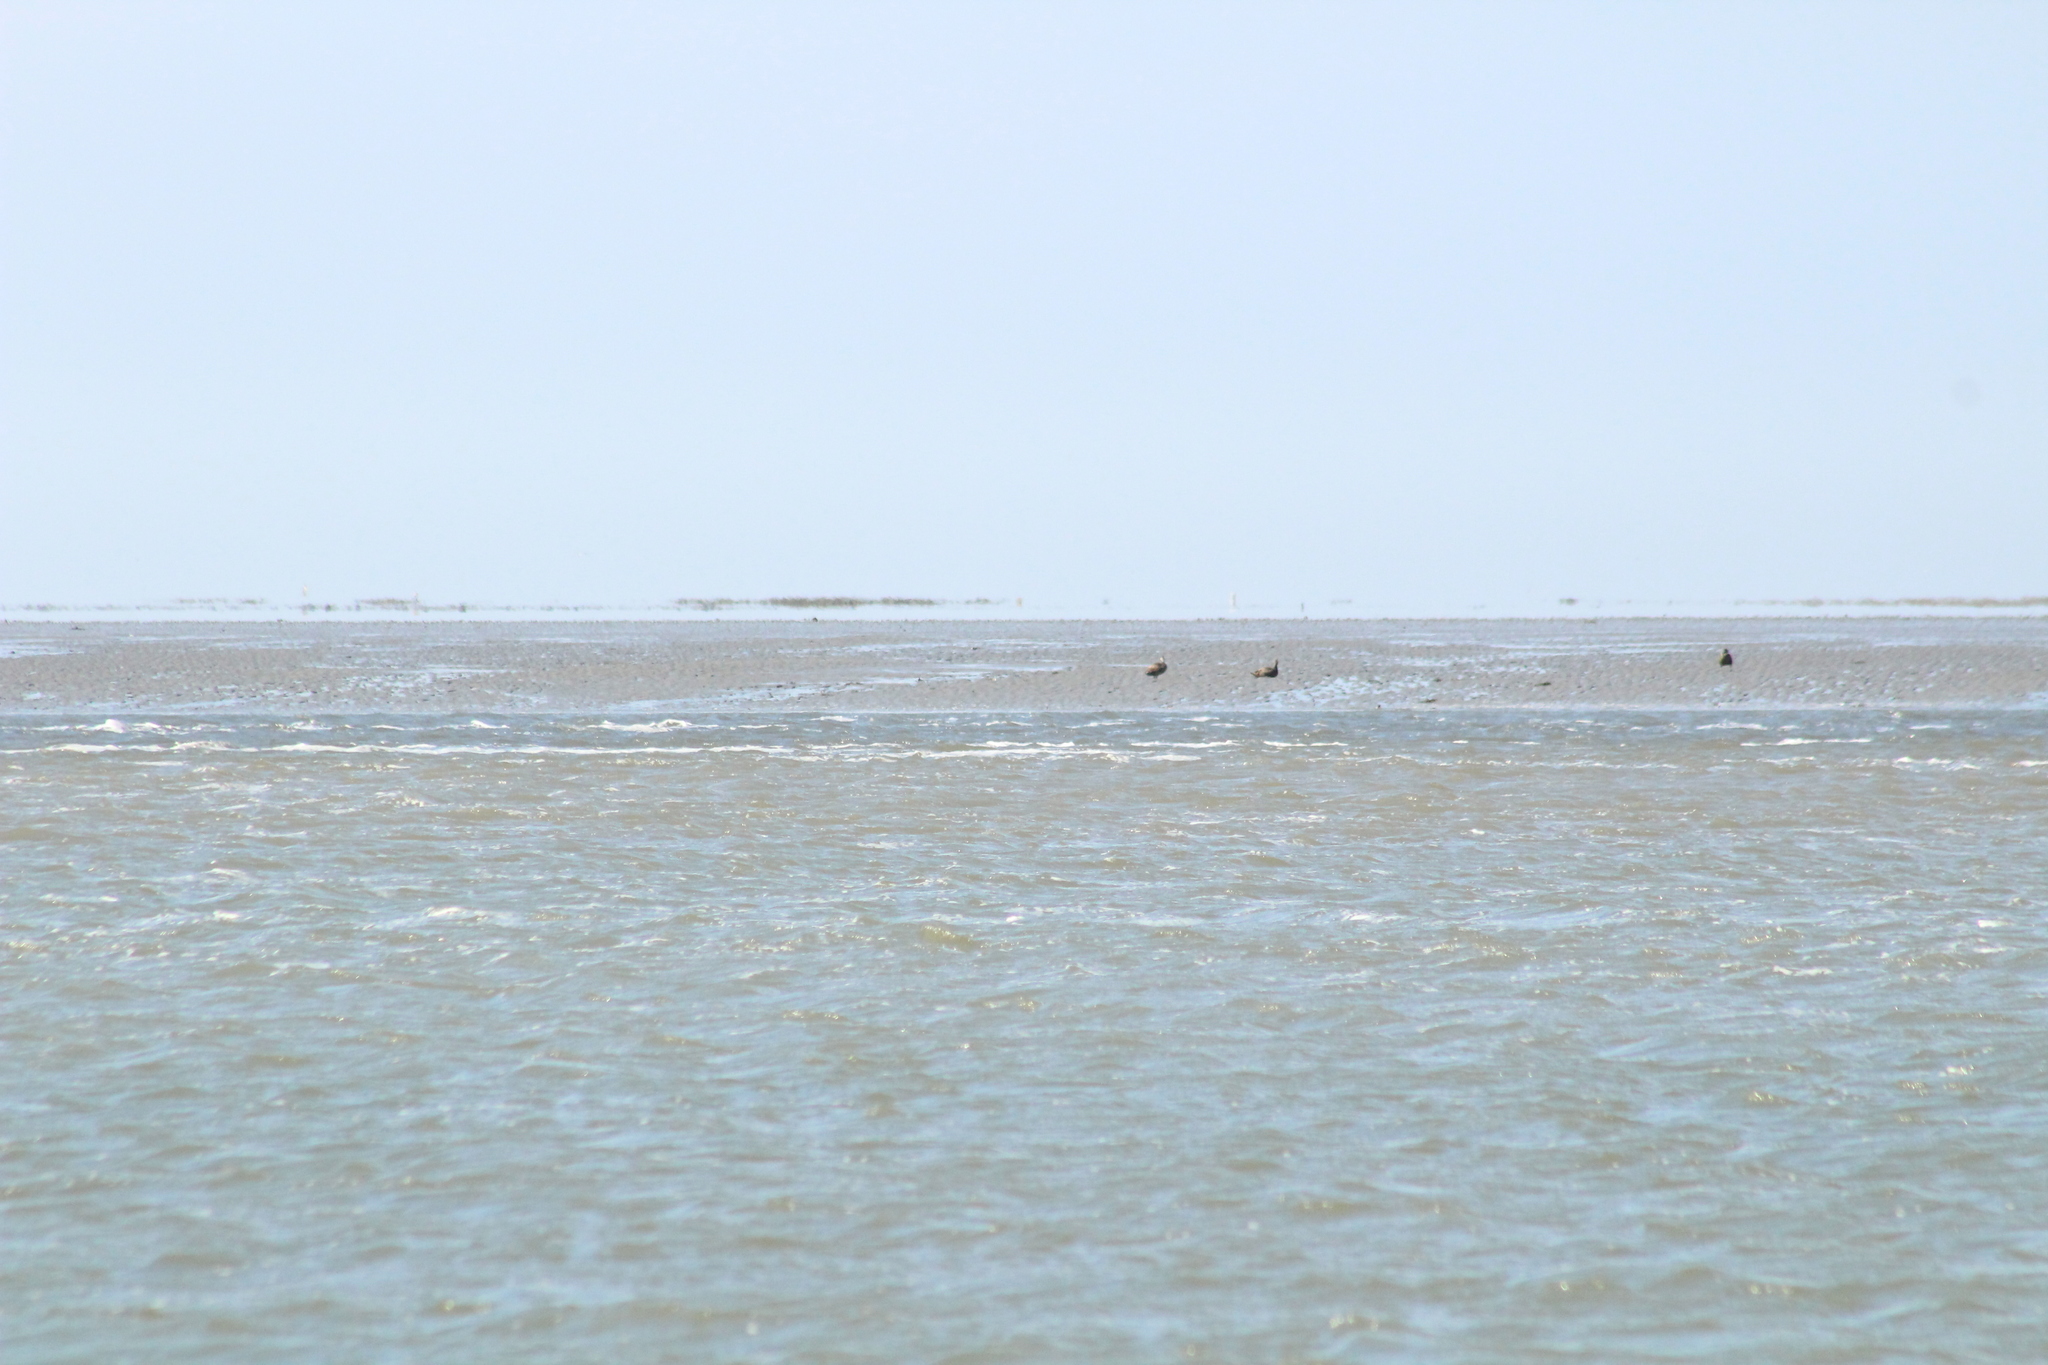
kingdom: Animalia
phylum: Chordata
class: Aves
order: Anseriformes
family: Anatidae
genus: Somateria
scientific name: Somateria mollissima
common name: Common eider
